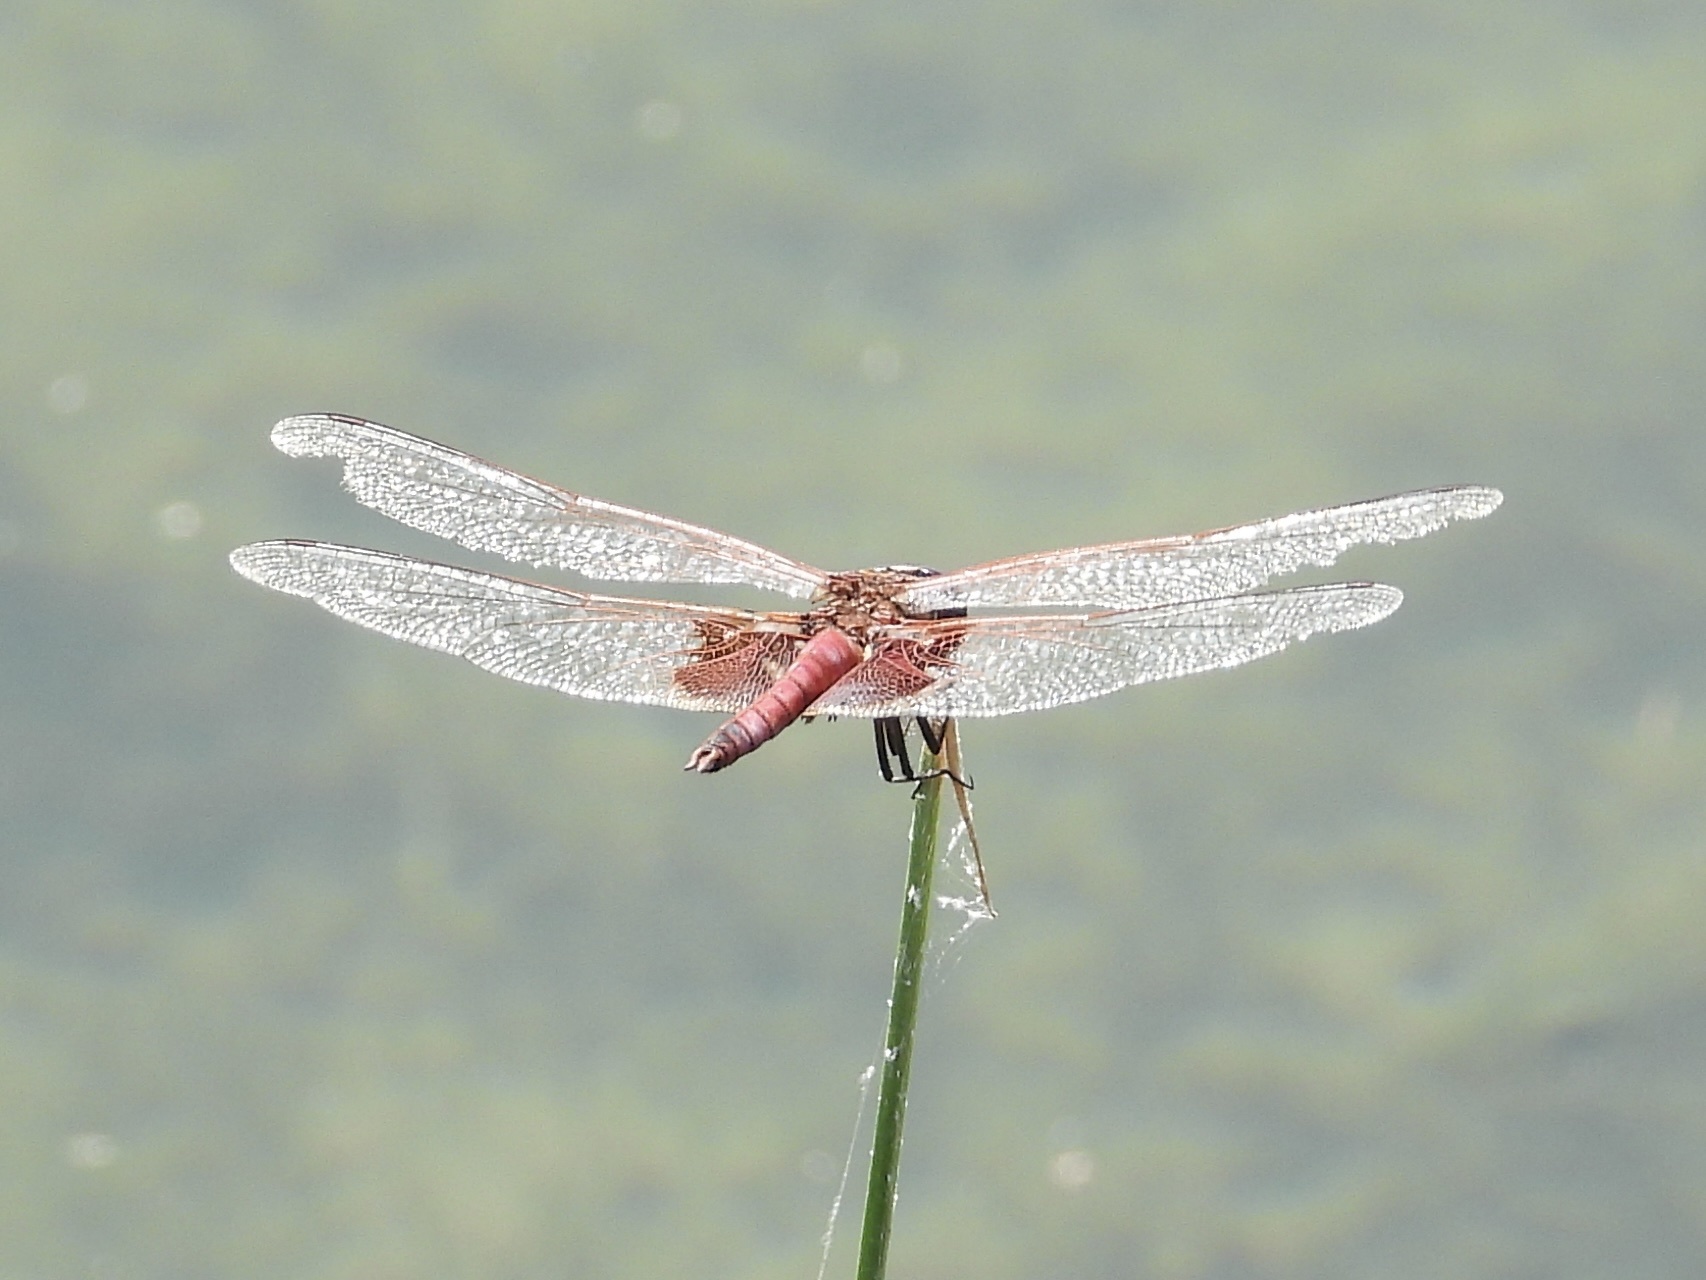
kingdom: Animalia
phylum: Arthropoda
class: Insecta
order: Odonata
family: Libellulidae
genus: Tramea
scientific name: Tramea onusta
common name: Red saddlebags
